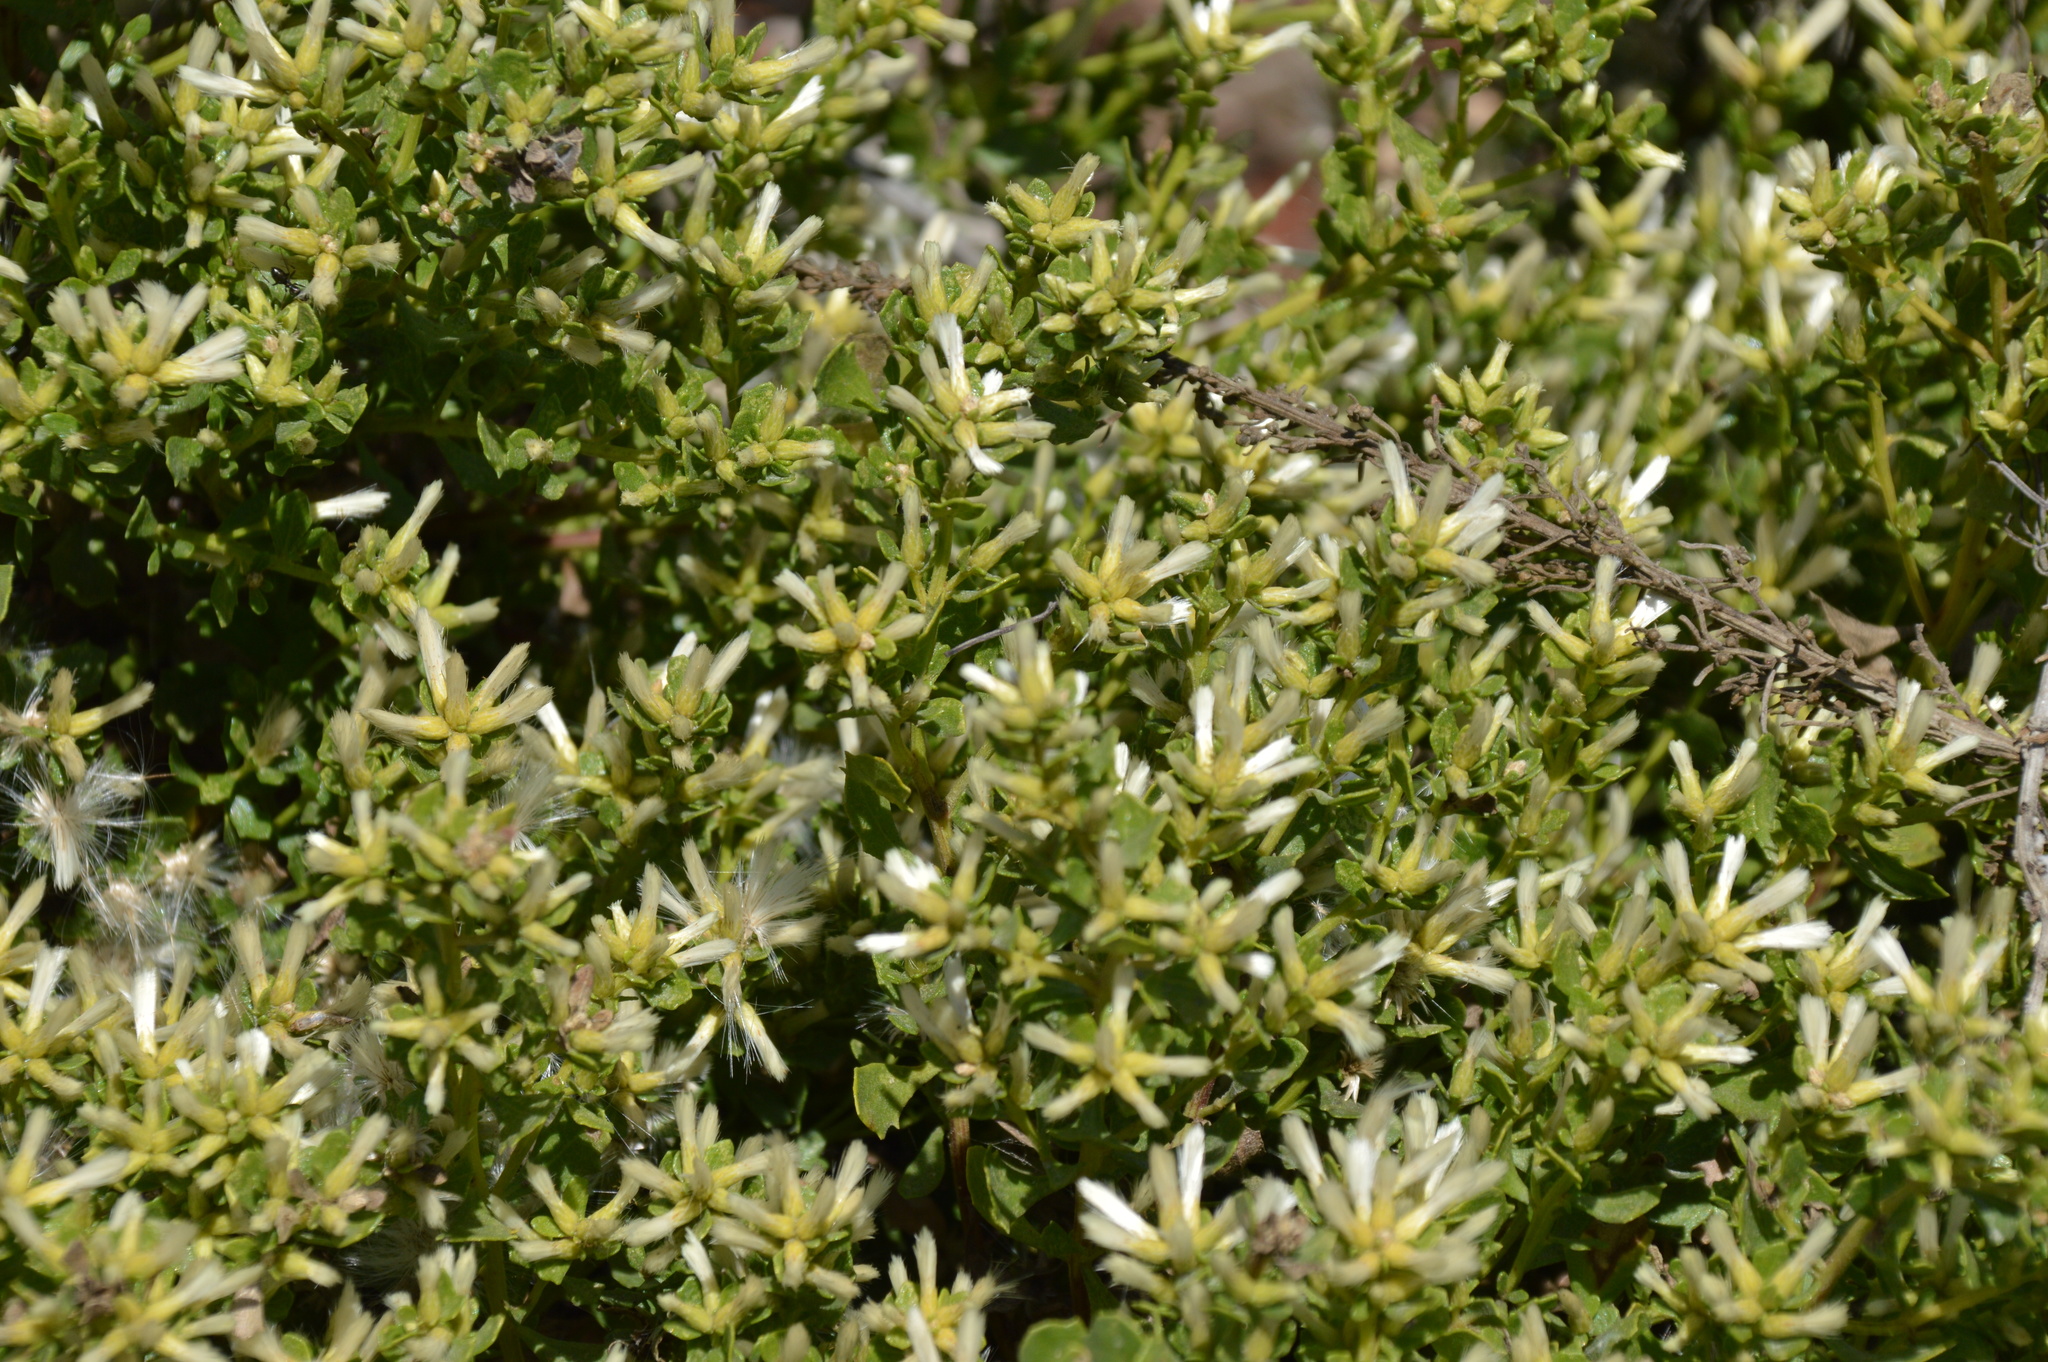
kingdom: Plantae
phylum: Tracheophyta
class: Magnoliopsida
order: Asterales
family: Asteraceae
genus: Baccharis
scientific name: Baccharis pilularis
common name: Coyotebrush
